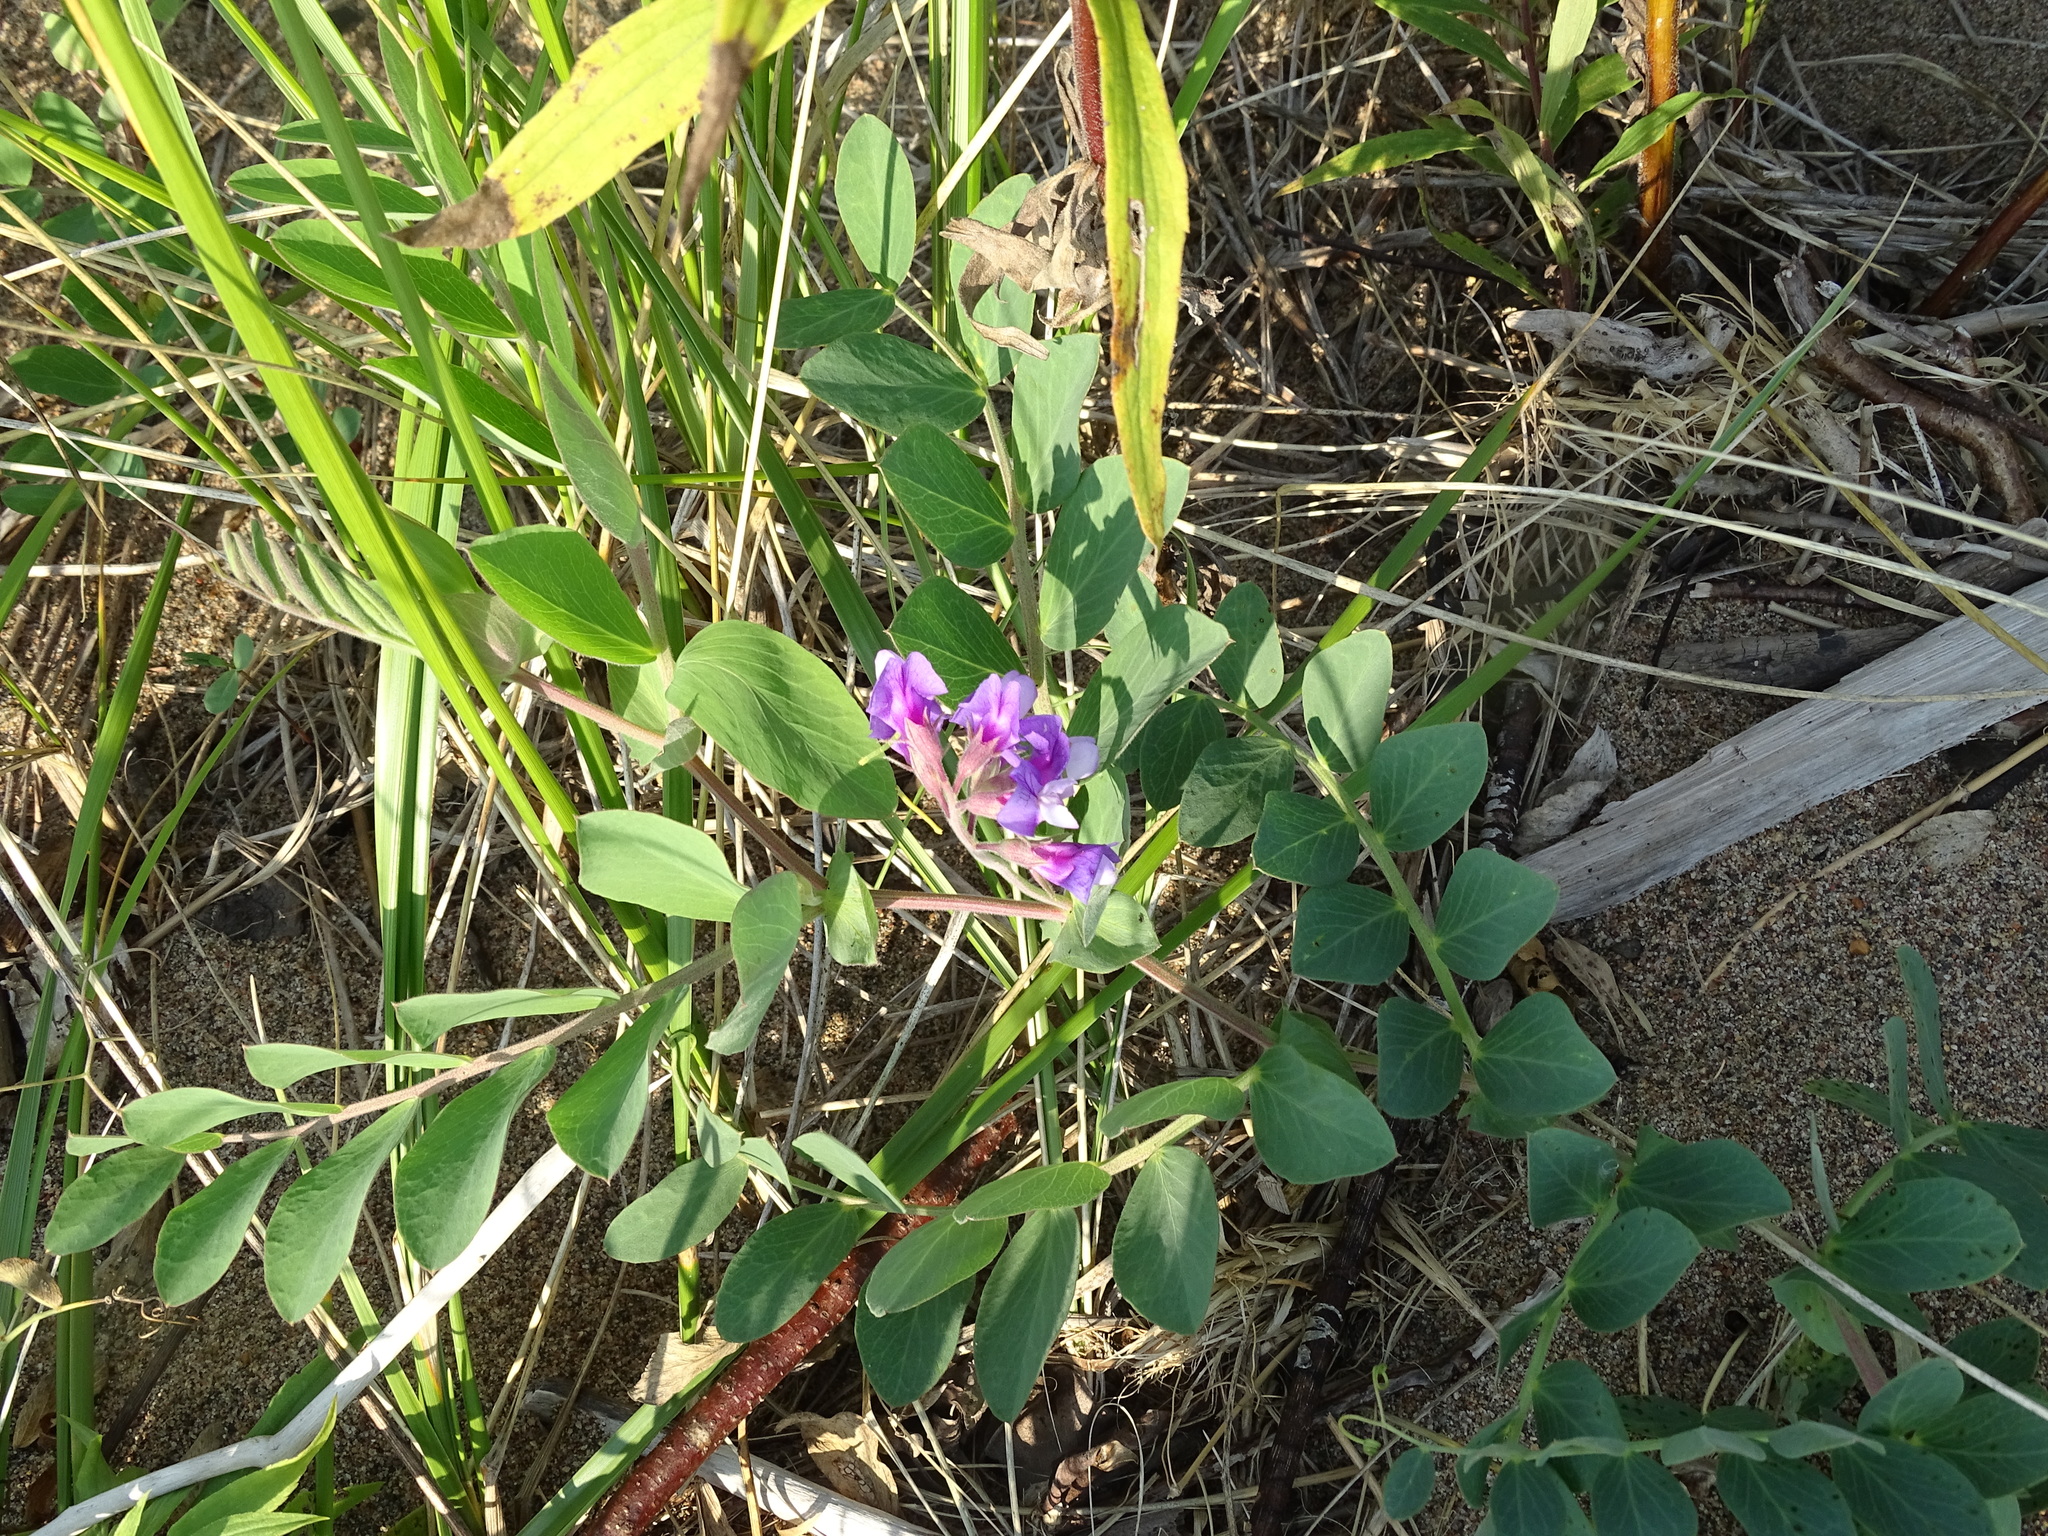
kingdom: Plantae
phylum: Tracheophyta
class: Magnoliopsida
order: Fabales
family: Fabaceae
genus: Lathyrus
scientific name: Lathyrus japonicus
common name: Sea pea
